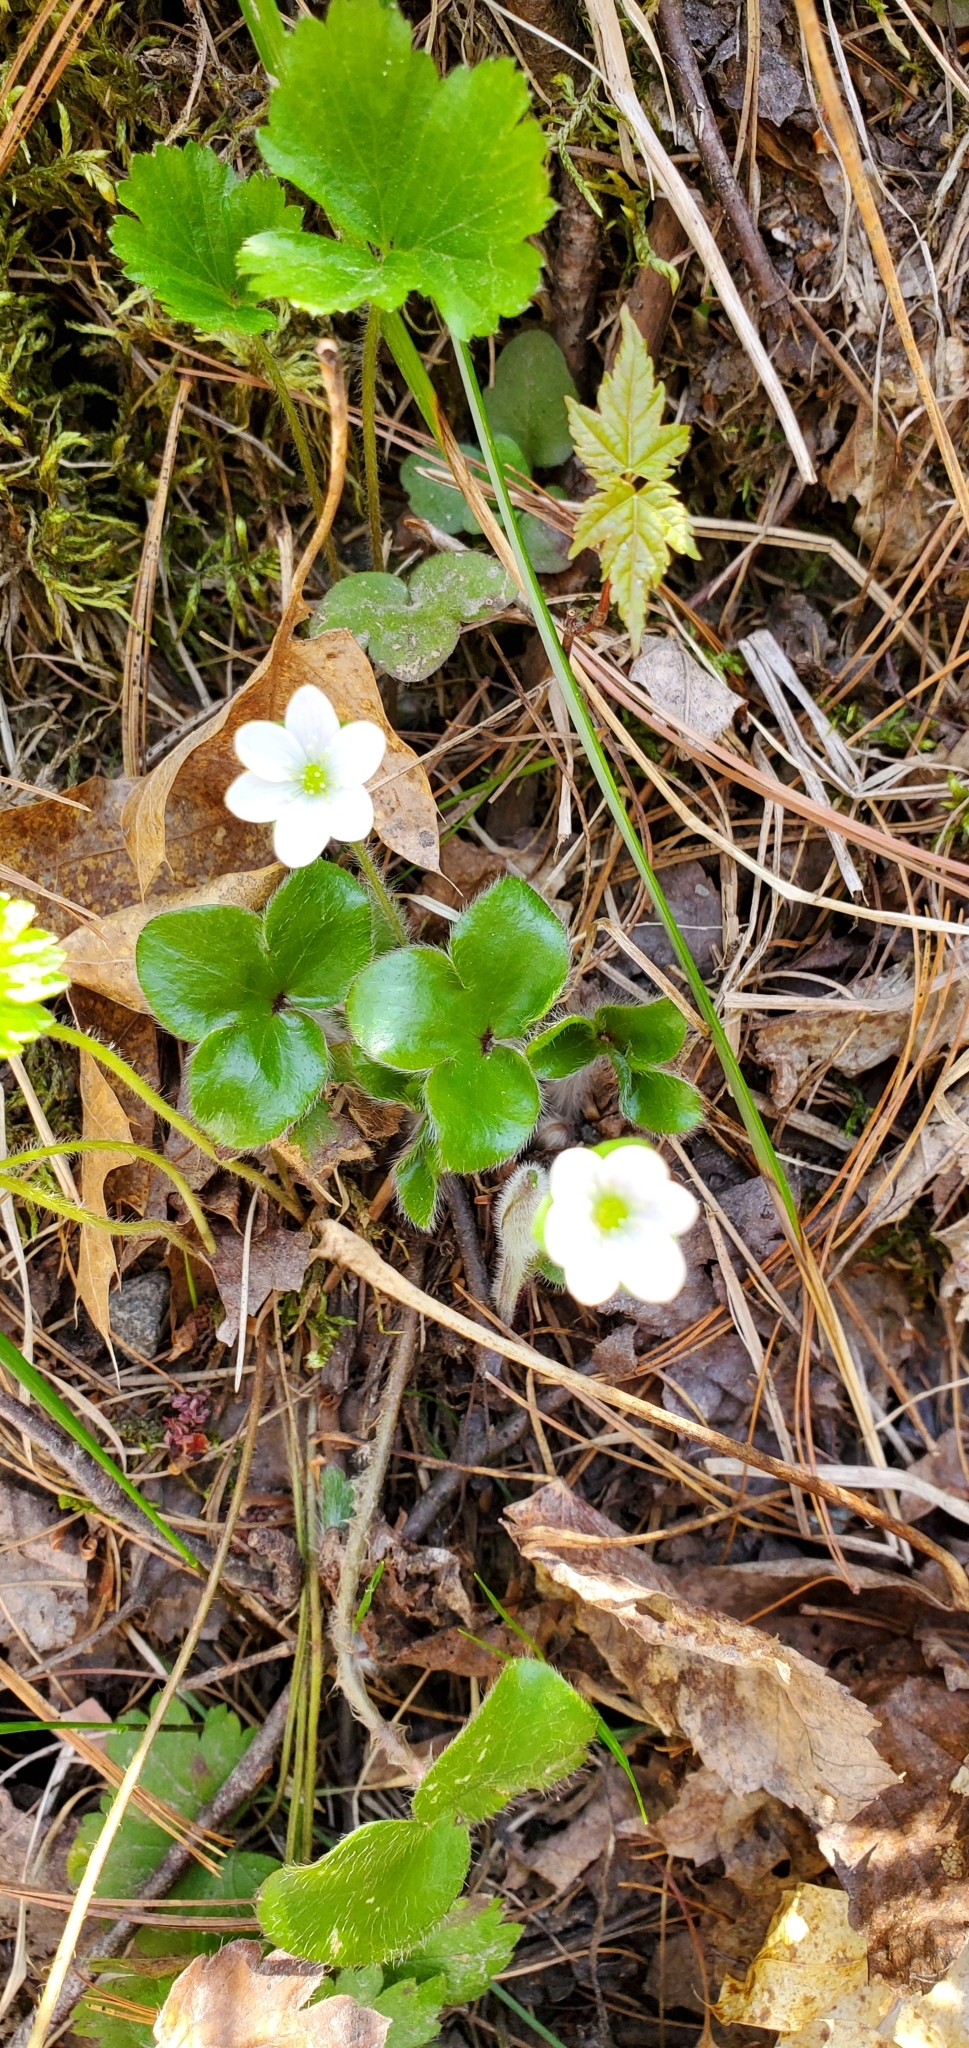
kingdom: Plantae
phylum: Tracheophyta
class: Magnoliopsida
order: Ranunculales
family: Ranunculaceae
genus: Hepatica
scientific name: Hepatica americana
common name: American hepatica
